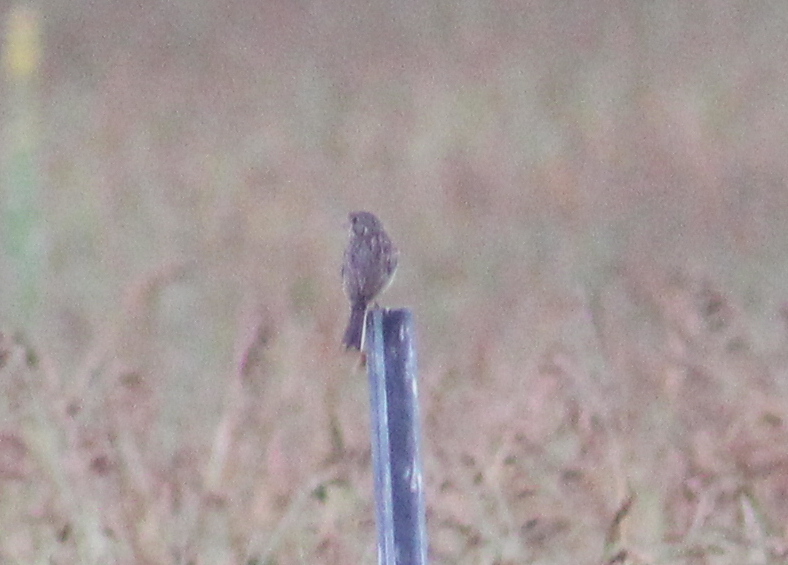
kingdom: Animalia
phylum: Chordata
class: Aves
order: Passeriformes
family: Passerellidae
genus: Pooecetes
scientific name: Pooecetes gramineus
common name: Vesper sparrow
